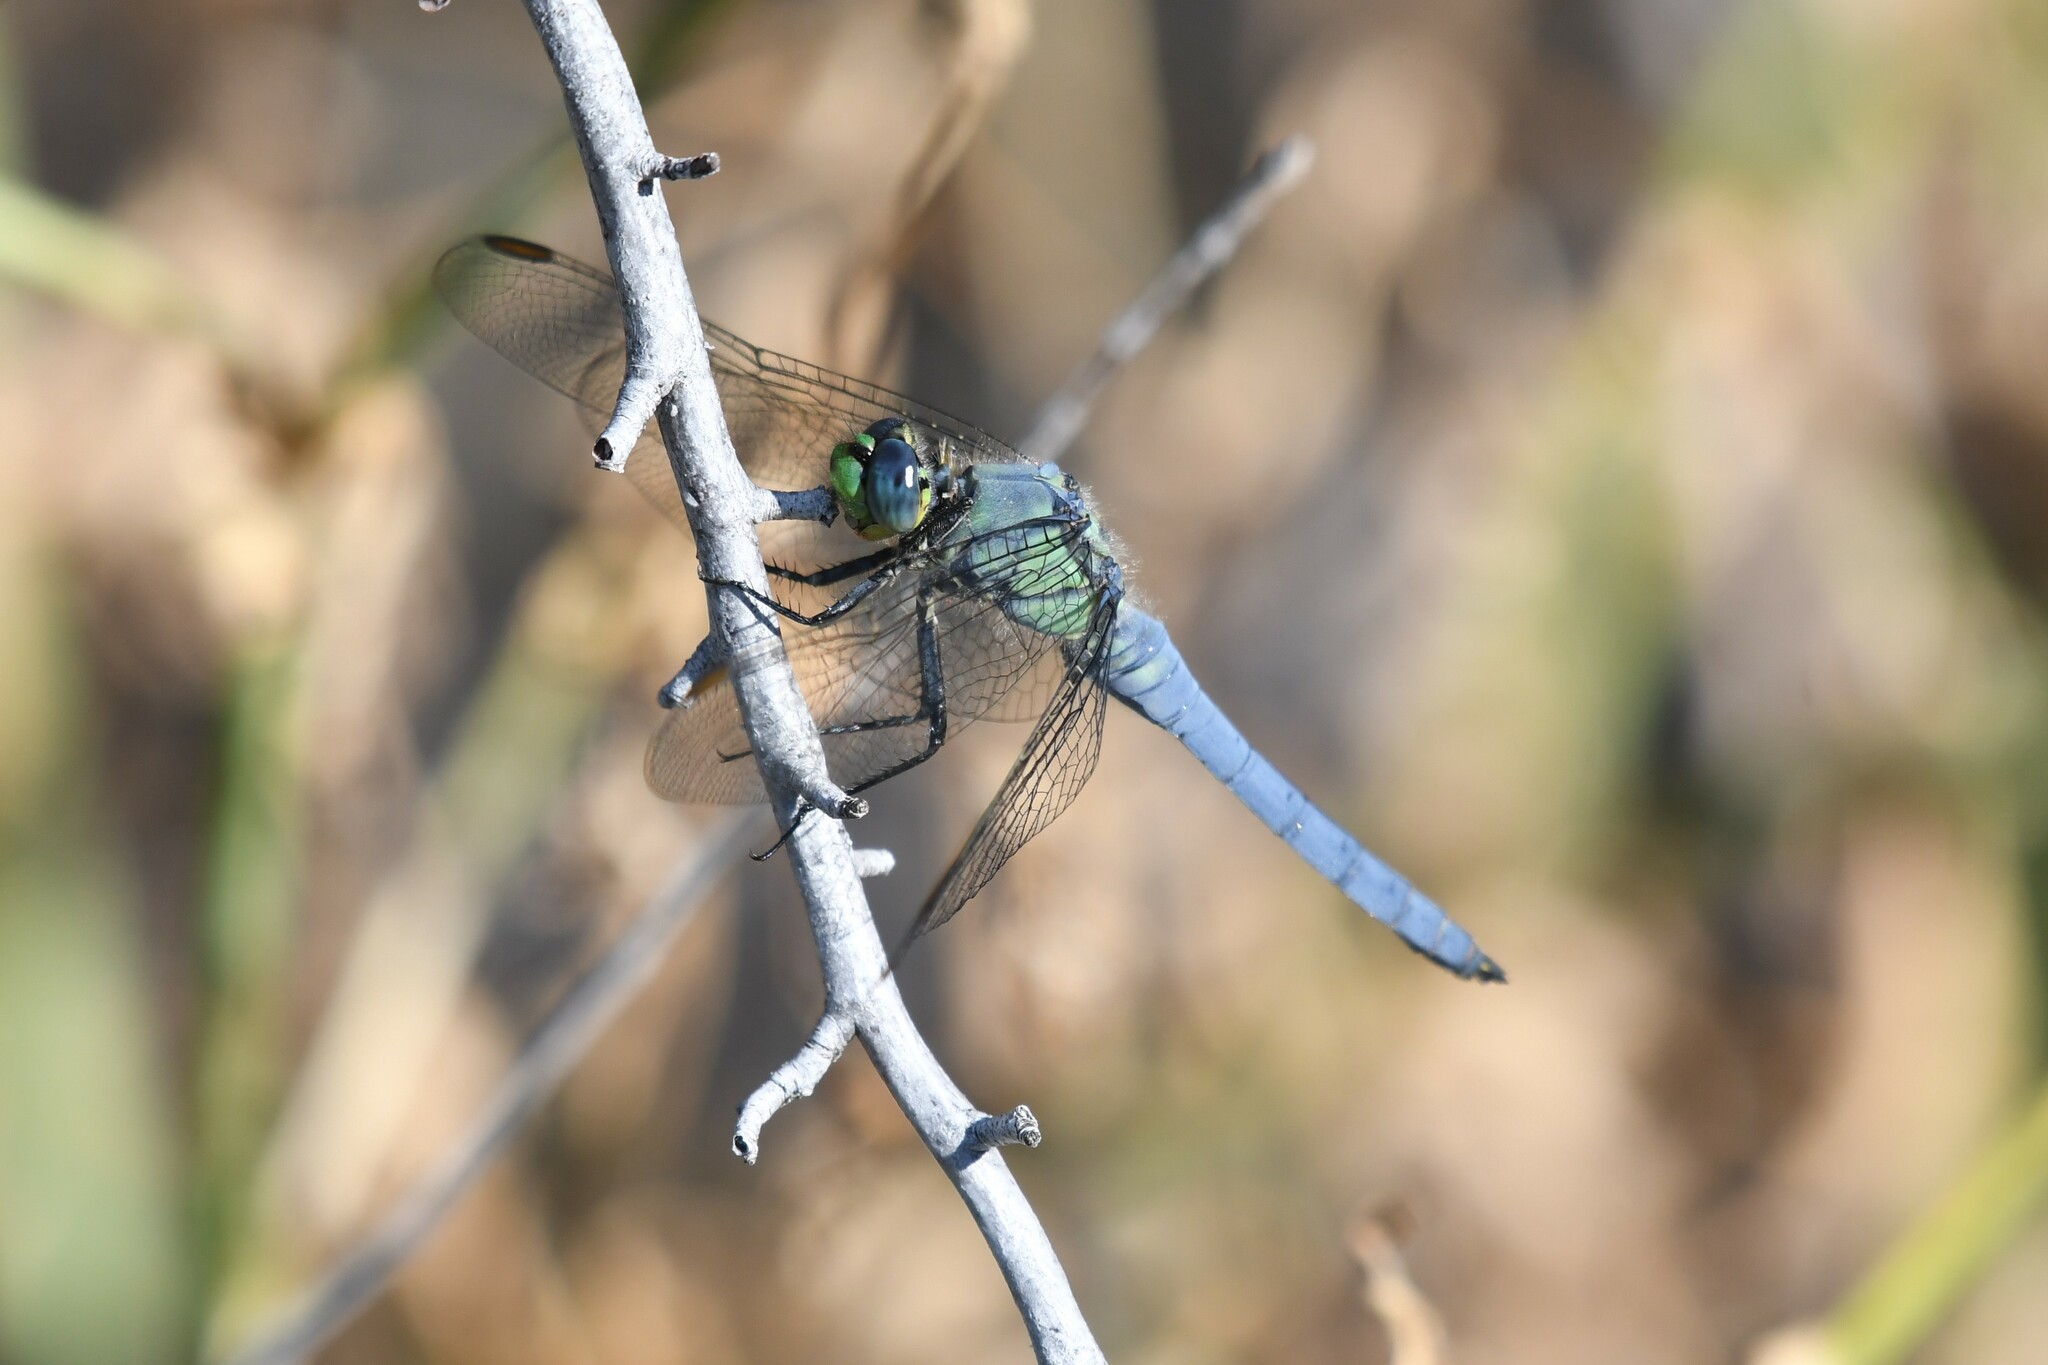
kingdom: Animalia
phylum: Arthropoda
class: Insecta
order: Odonata
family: Libellulidae
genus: Erythemis
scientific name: Erythemis collocata
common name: Western pondhawk
